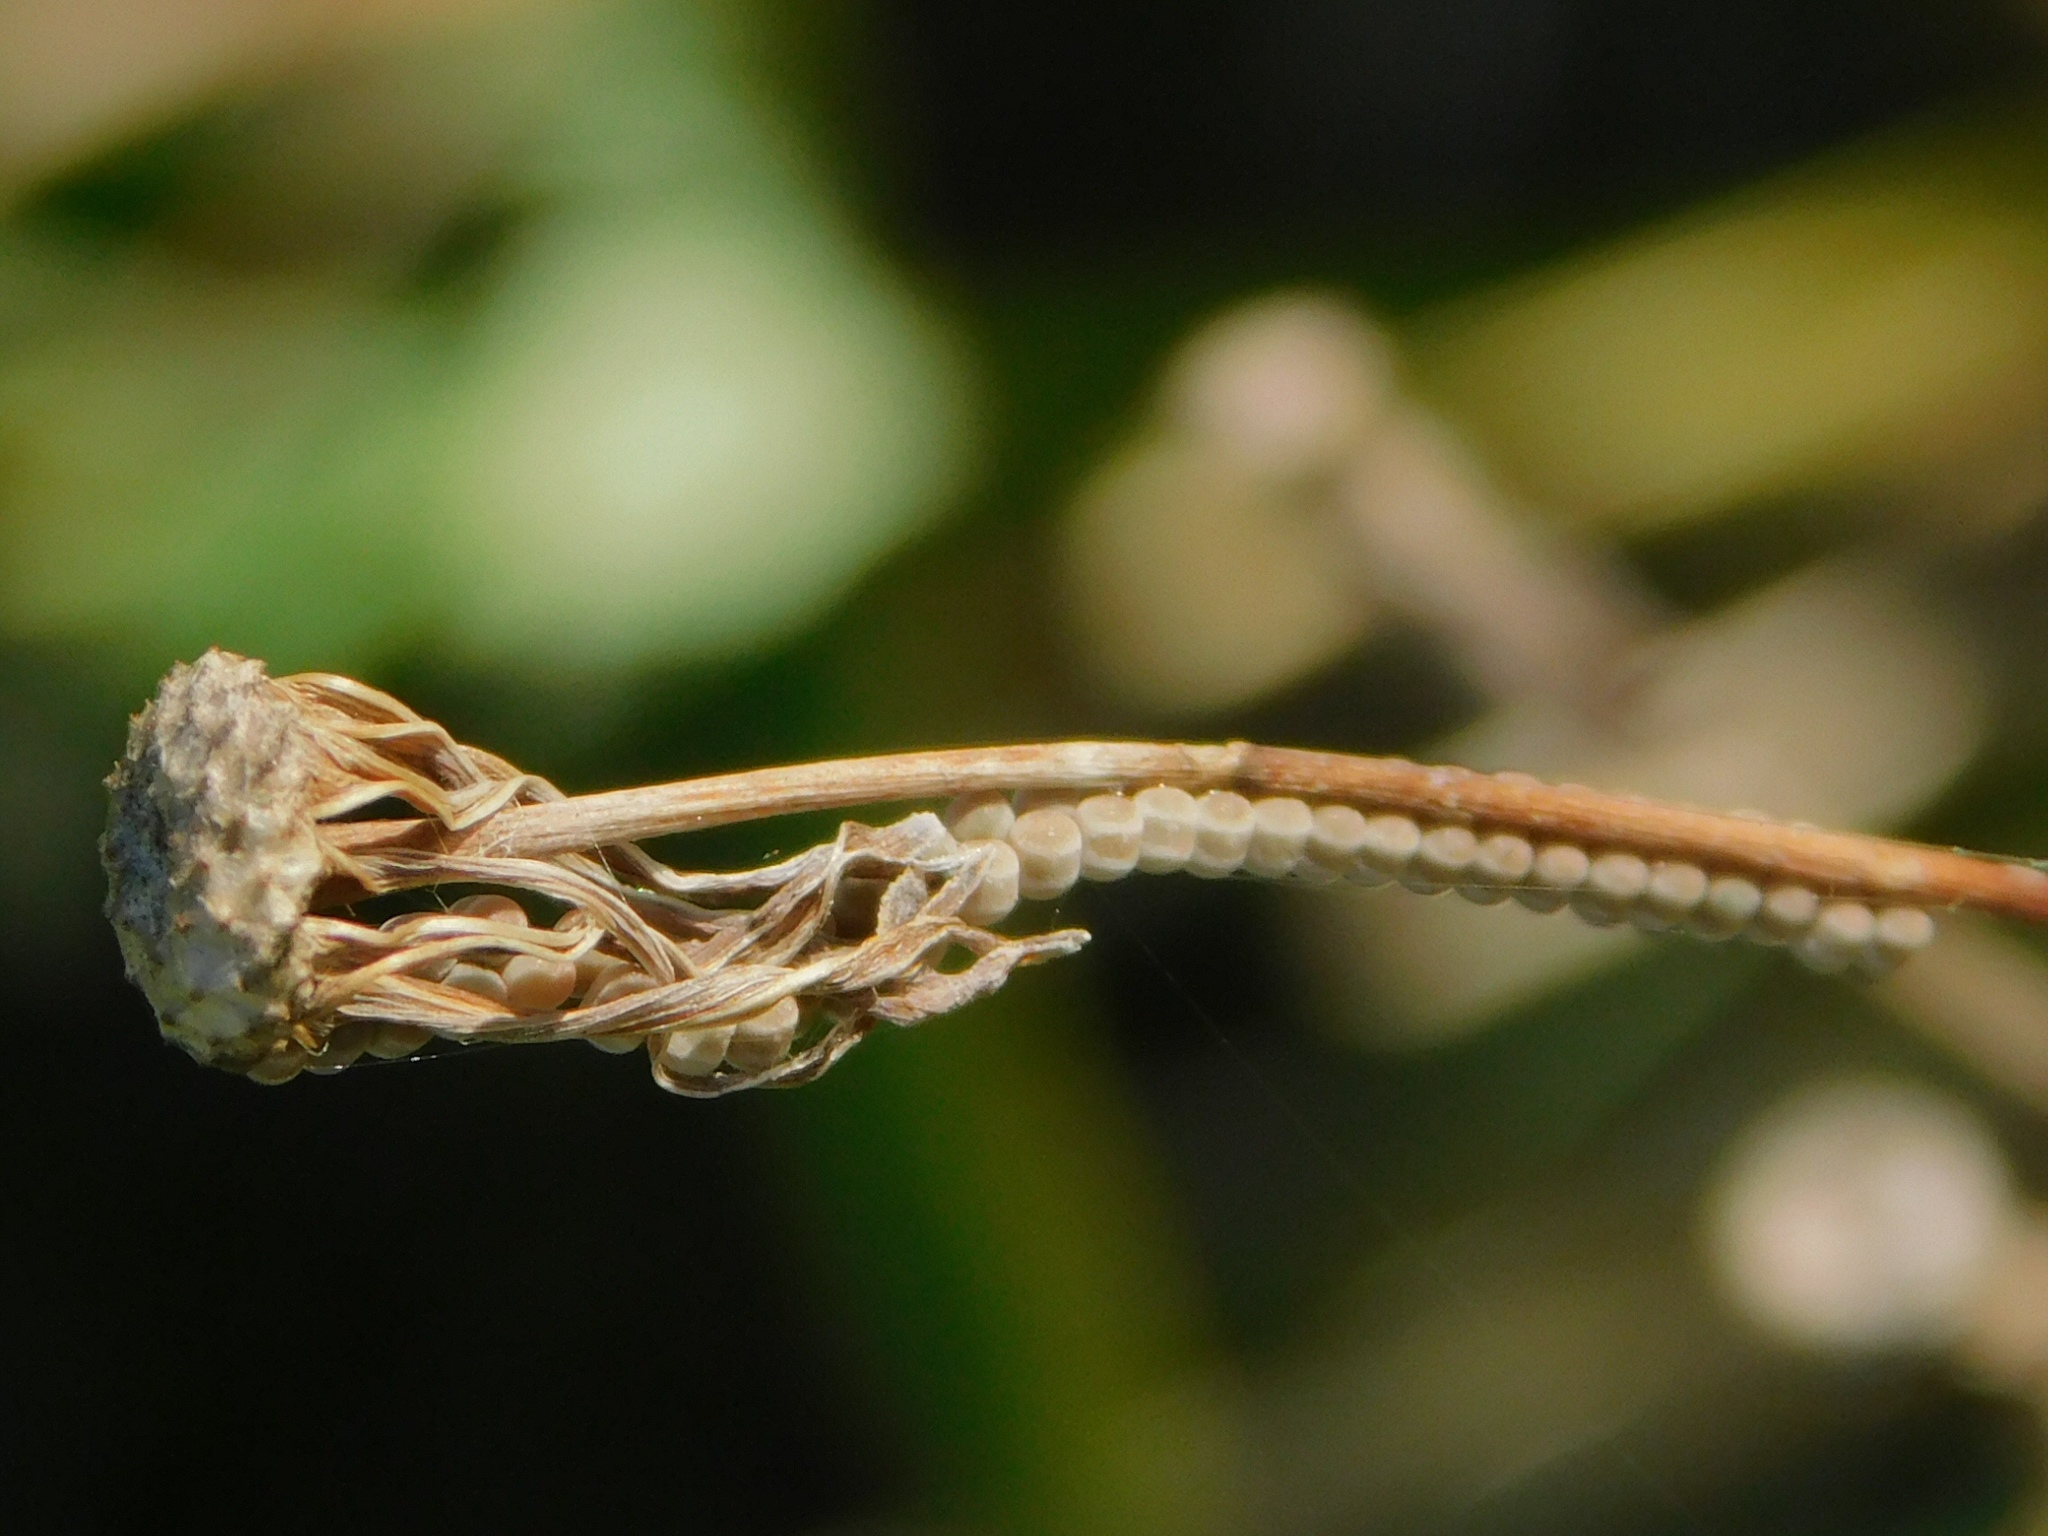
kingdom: Animalia
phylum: Arthropoda
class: Insecta
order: Hemiptera
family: Pentatomidae
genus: Thyanta
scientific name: Thyanta perditor
